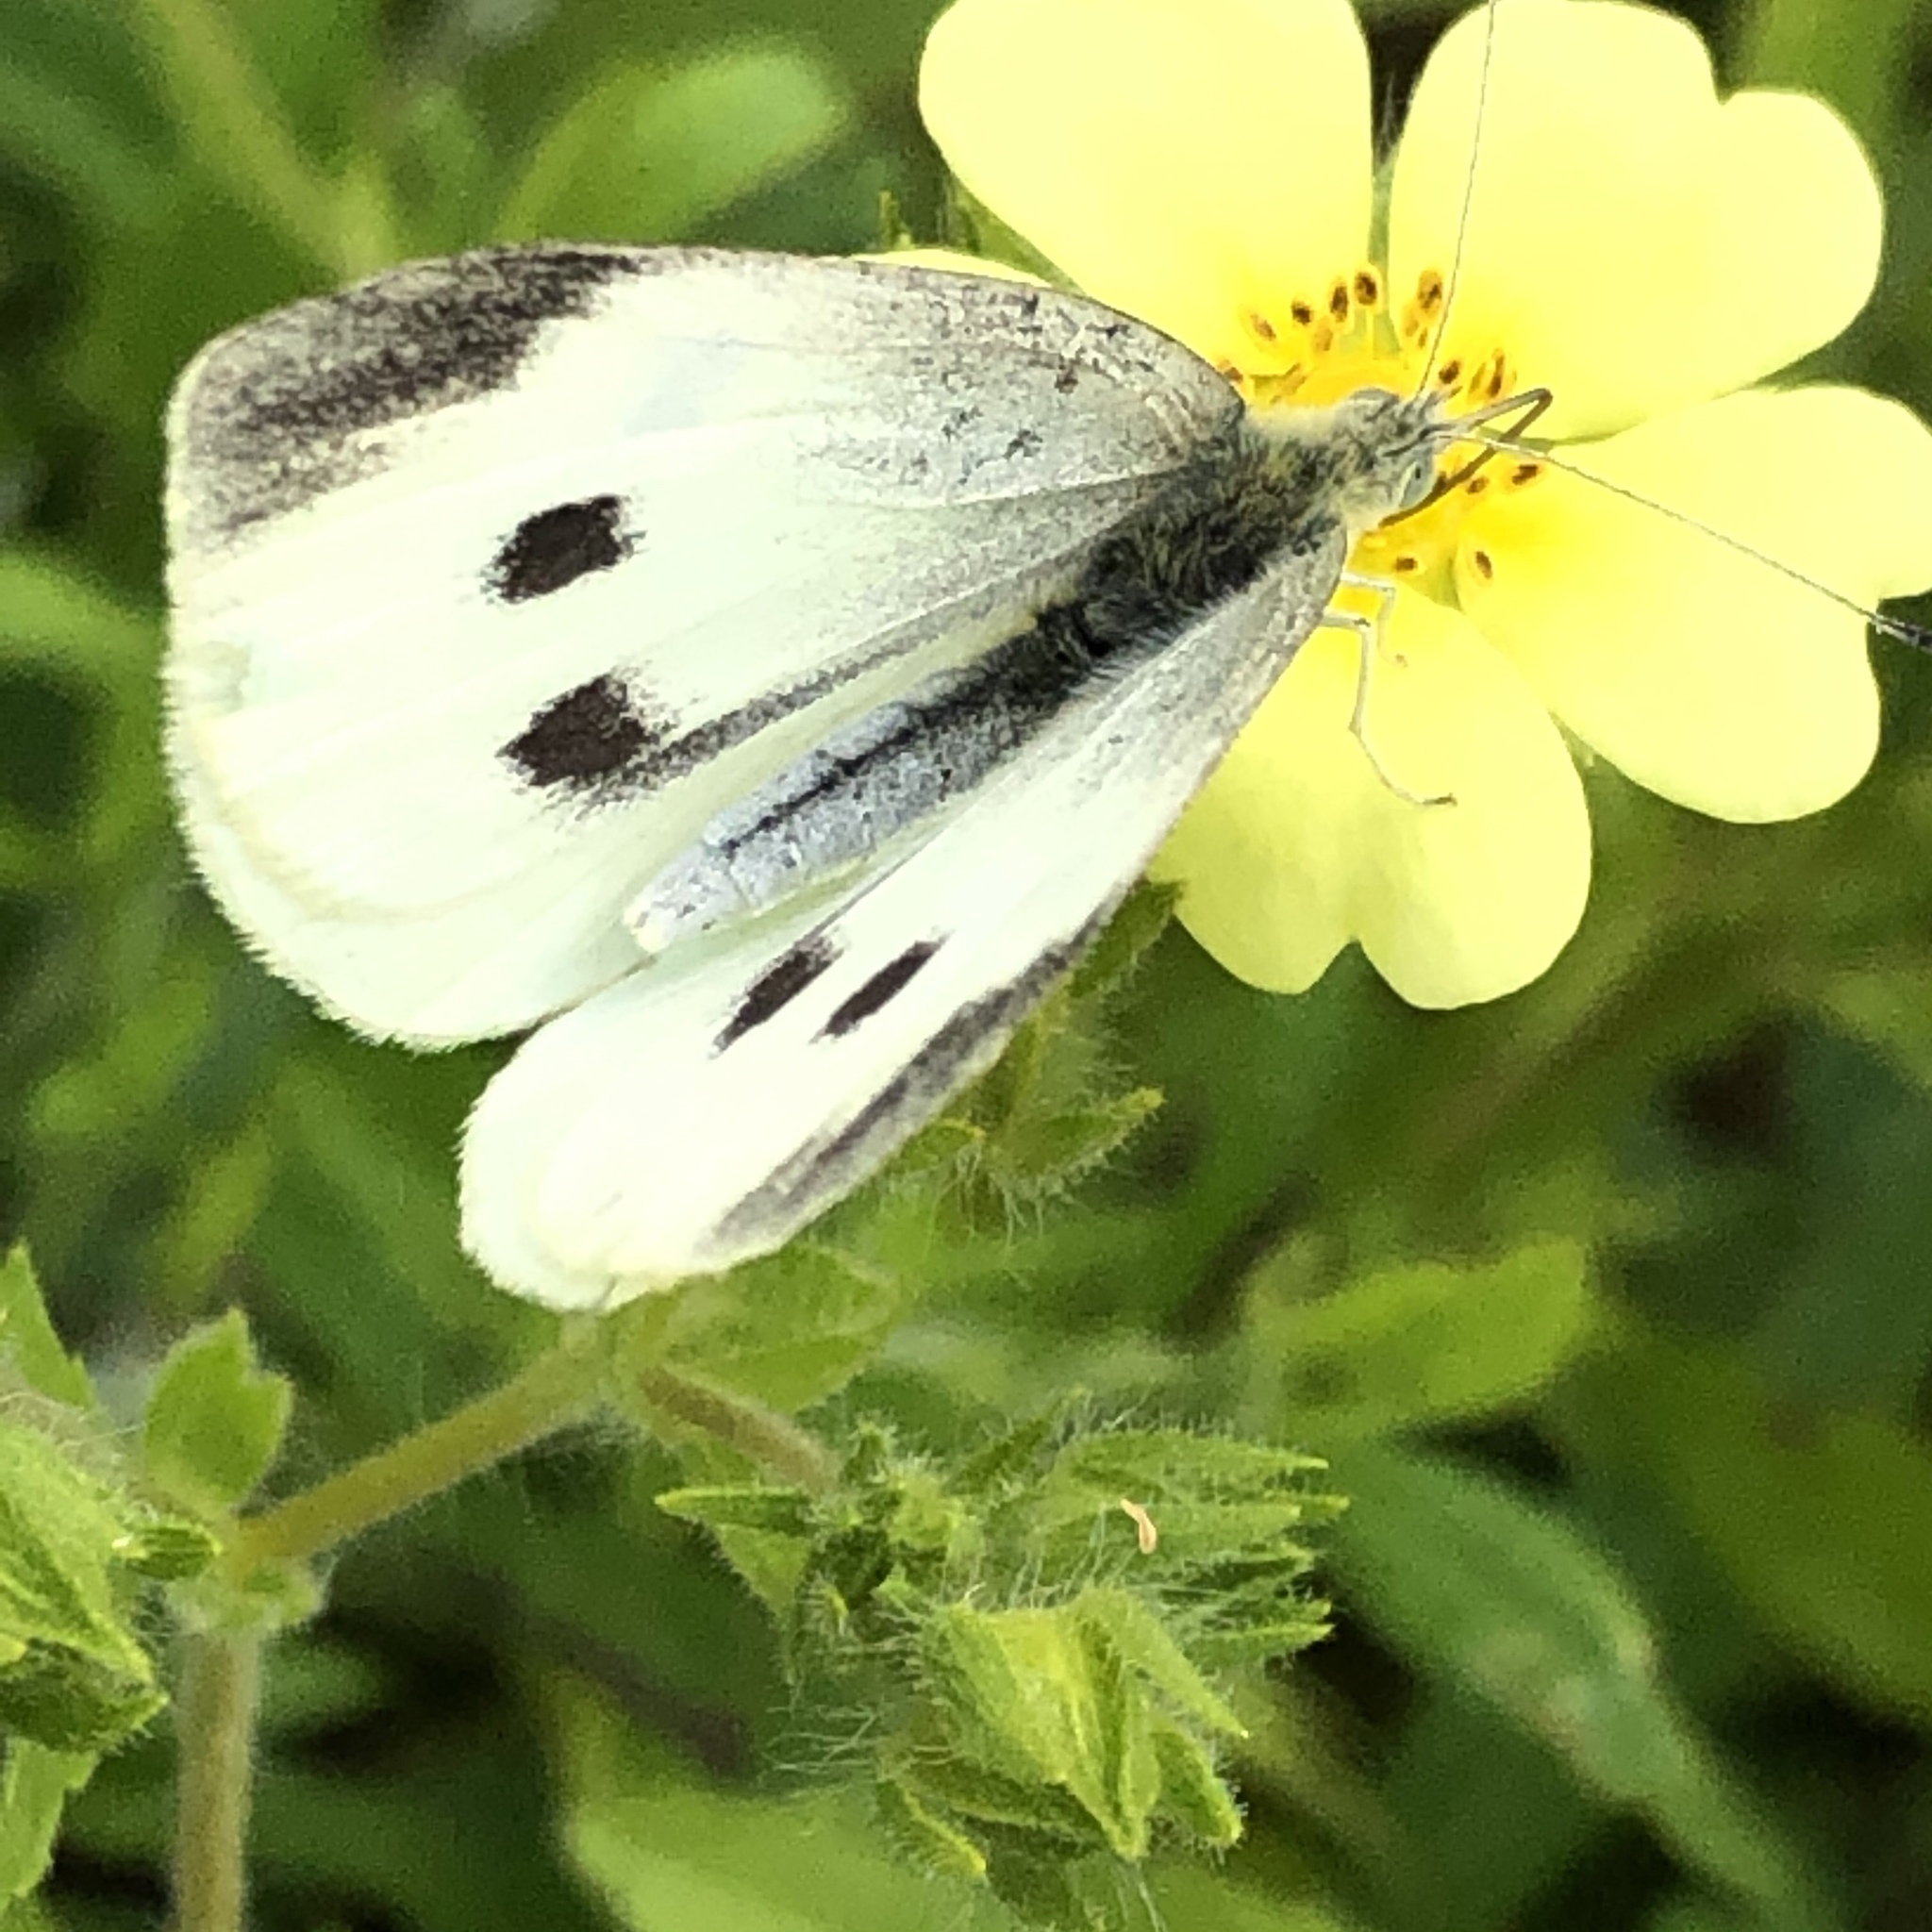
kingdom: Animalia
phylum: Arthropoda
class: Insecta
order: Lepidoptera
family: Pieridae
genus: Pieris
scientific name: Pieris rapae
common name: Small white
